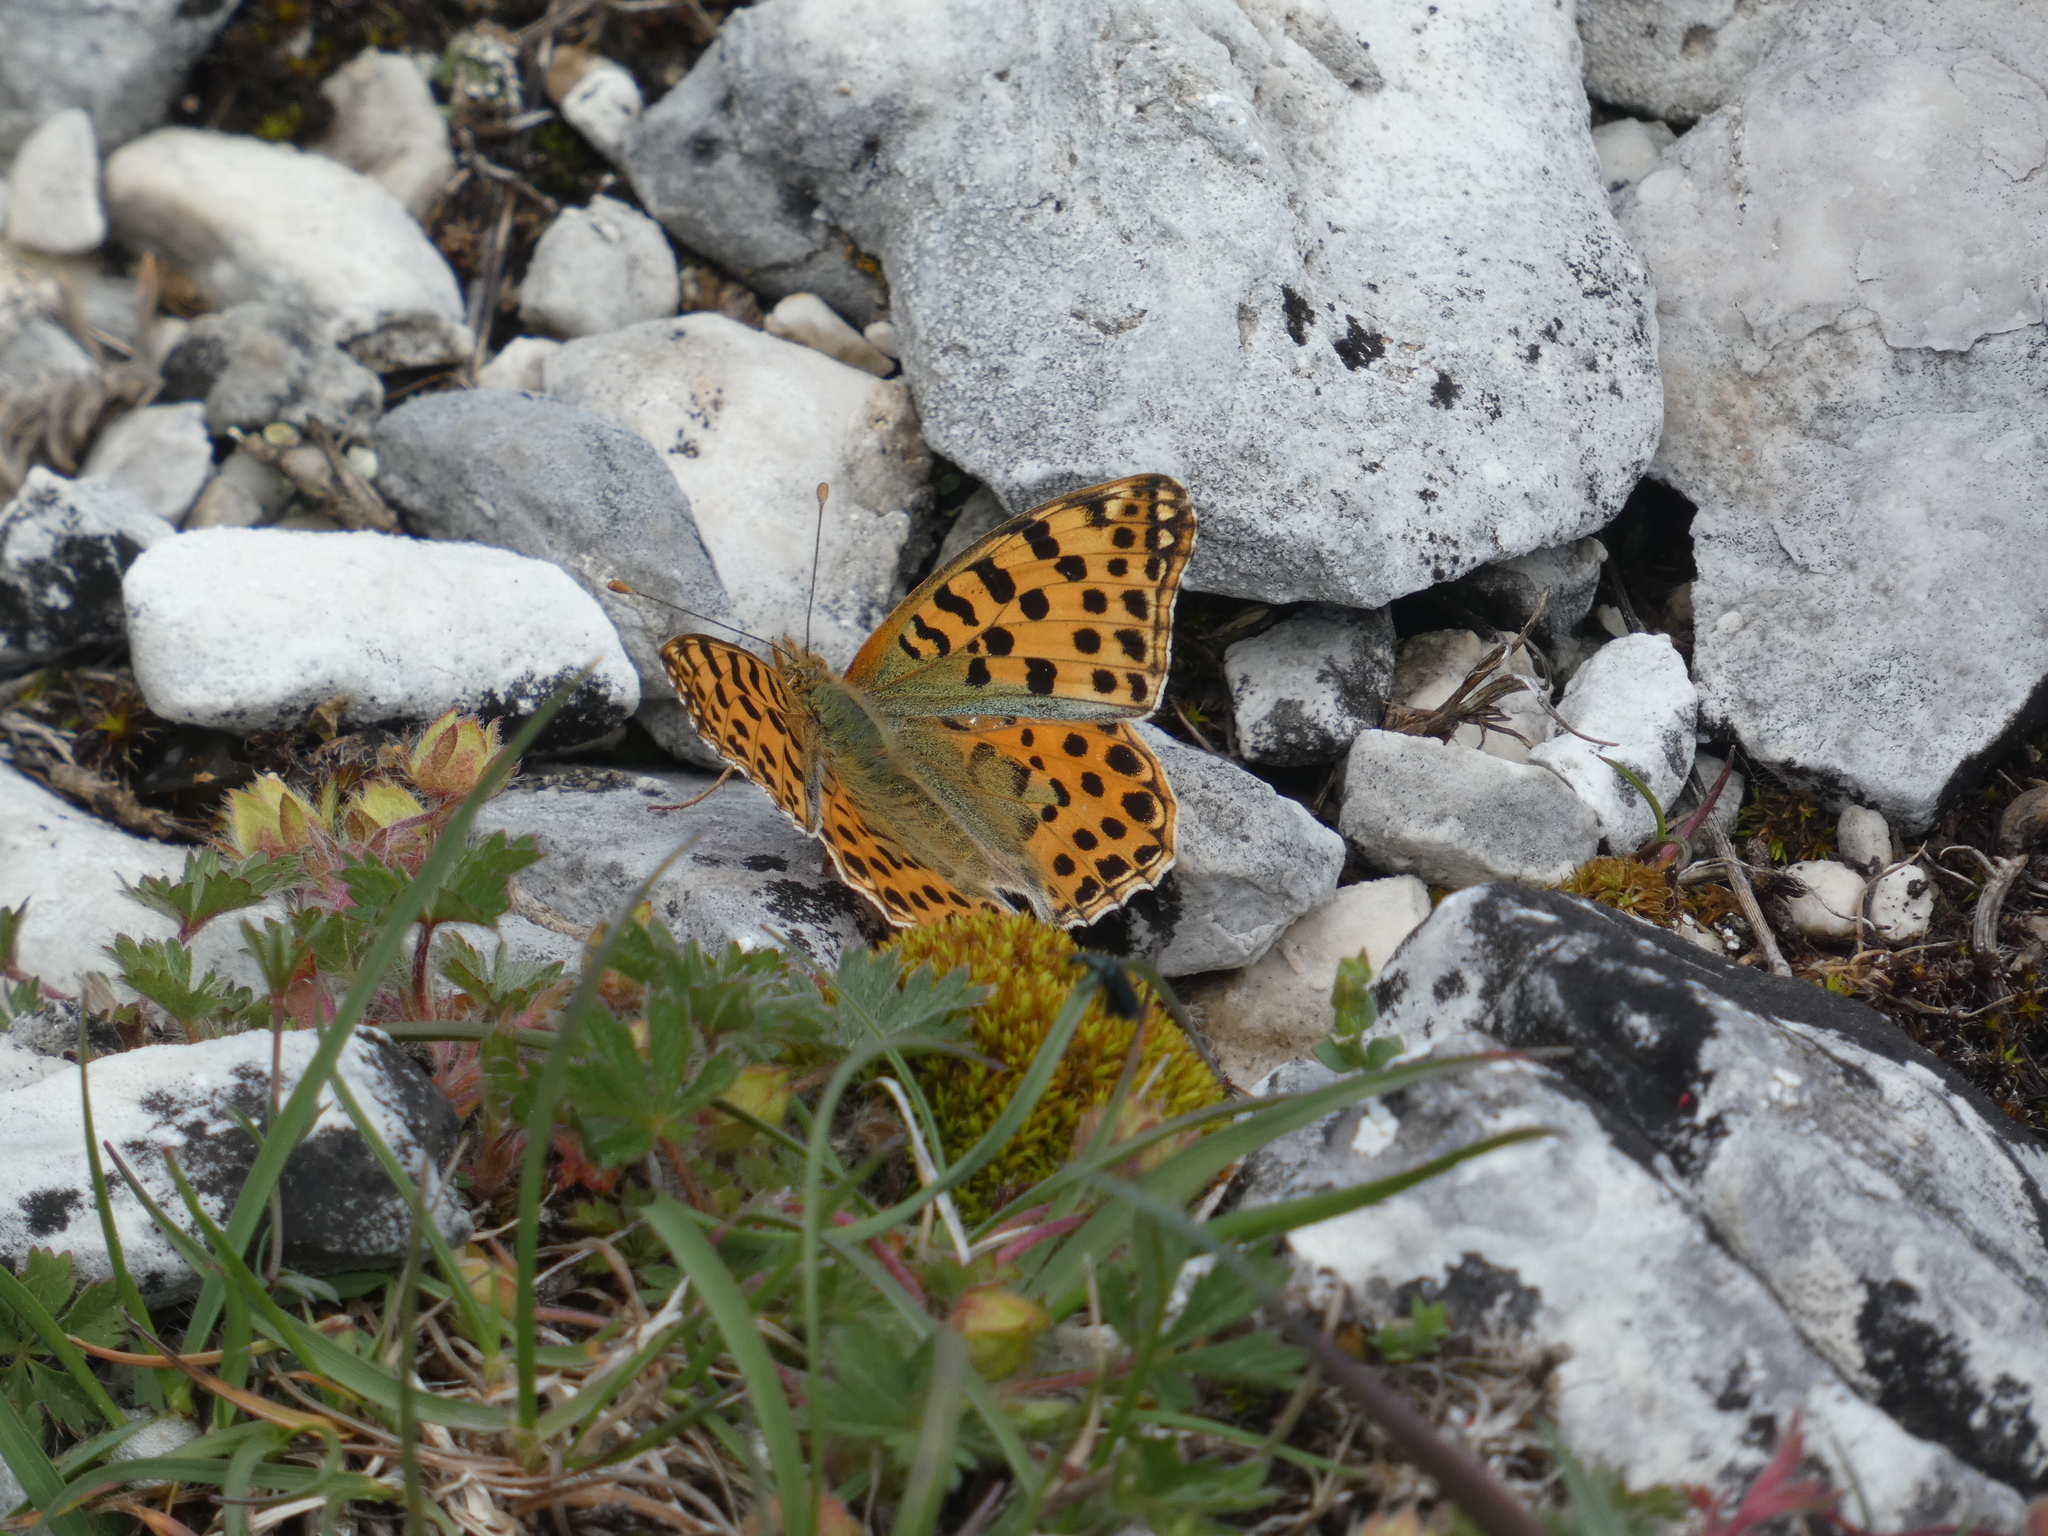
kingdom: Animalia
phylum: Arthropoda
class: Insecta
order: Lepidoptera
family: Nymphalidae
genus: Issoria
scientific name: Issoria lathonia
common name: Queen of spain fritillary
